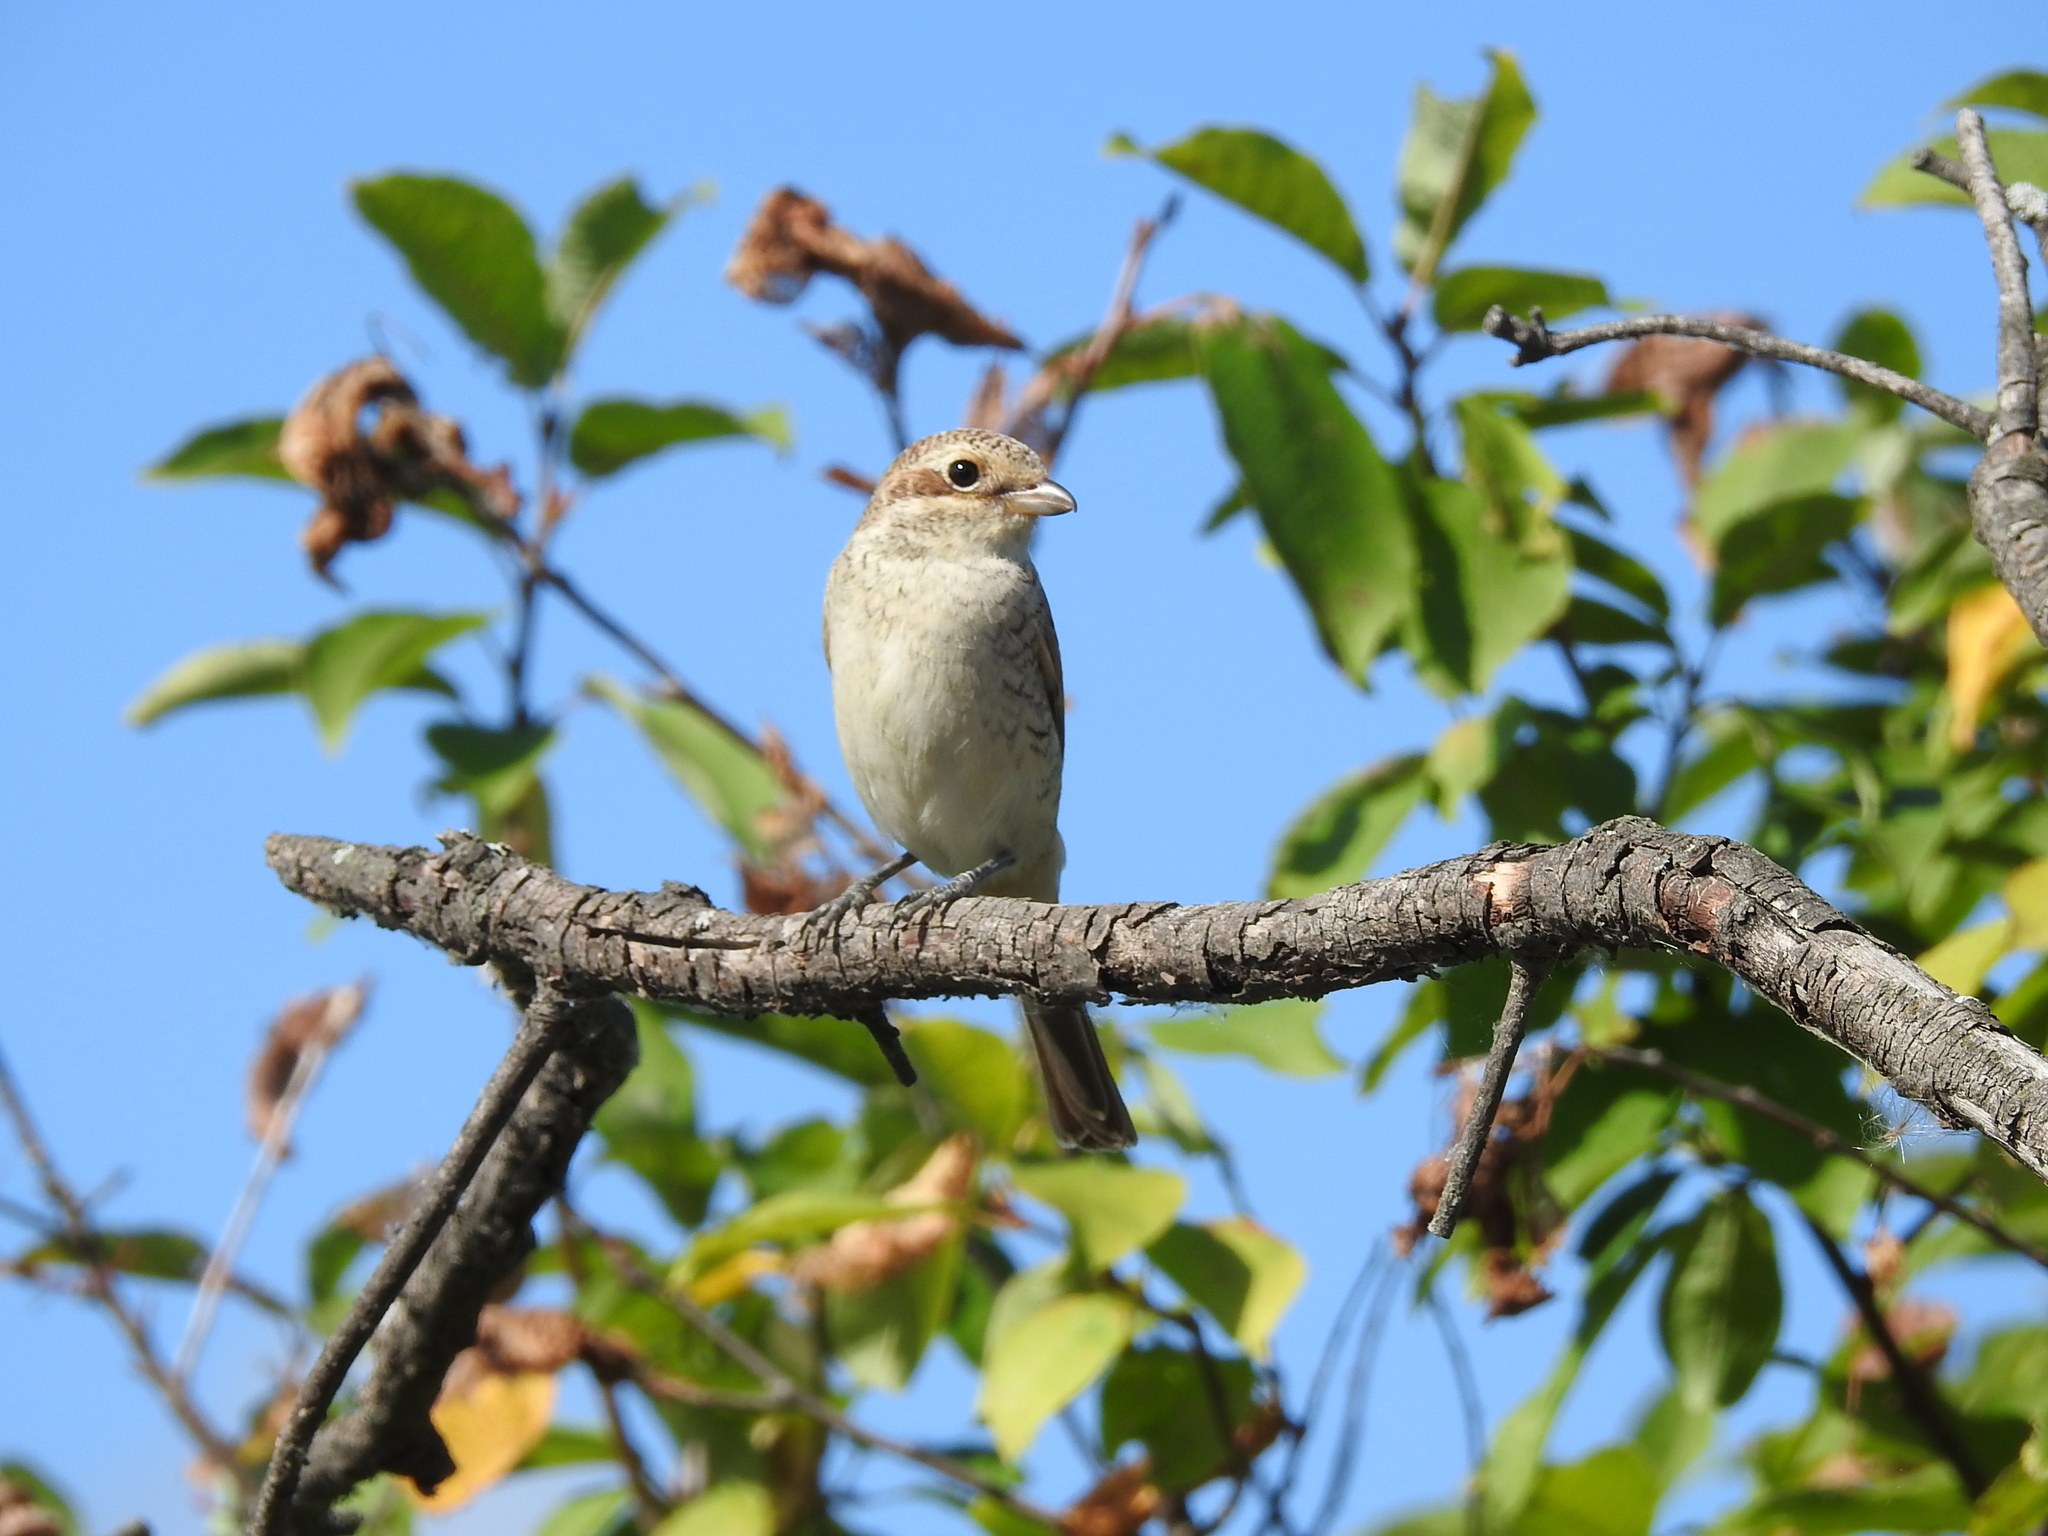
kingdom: Animalia
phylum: Chordata
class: Aves
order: Passeriformes
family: Laniidae
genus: Lanius
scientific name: Lanius collurio
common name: Red-backed shrike
